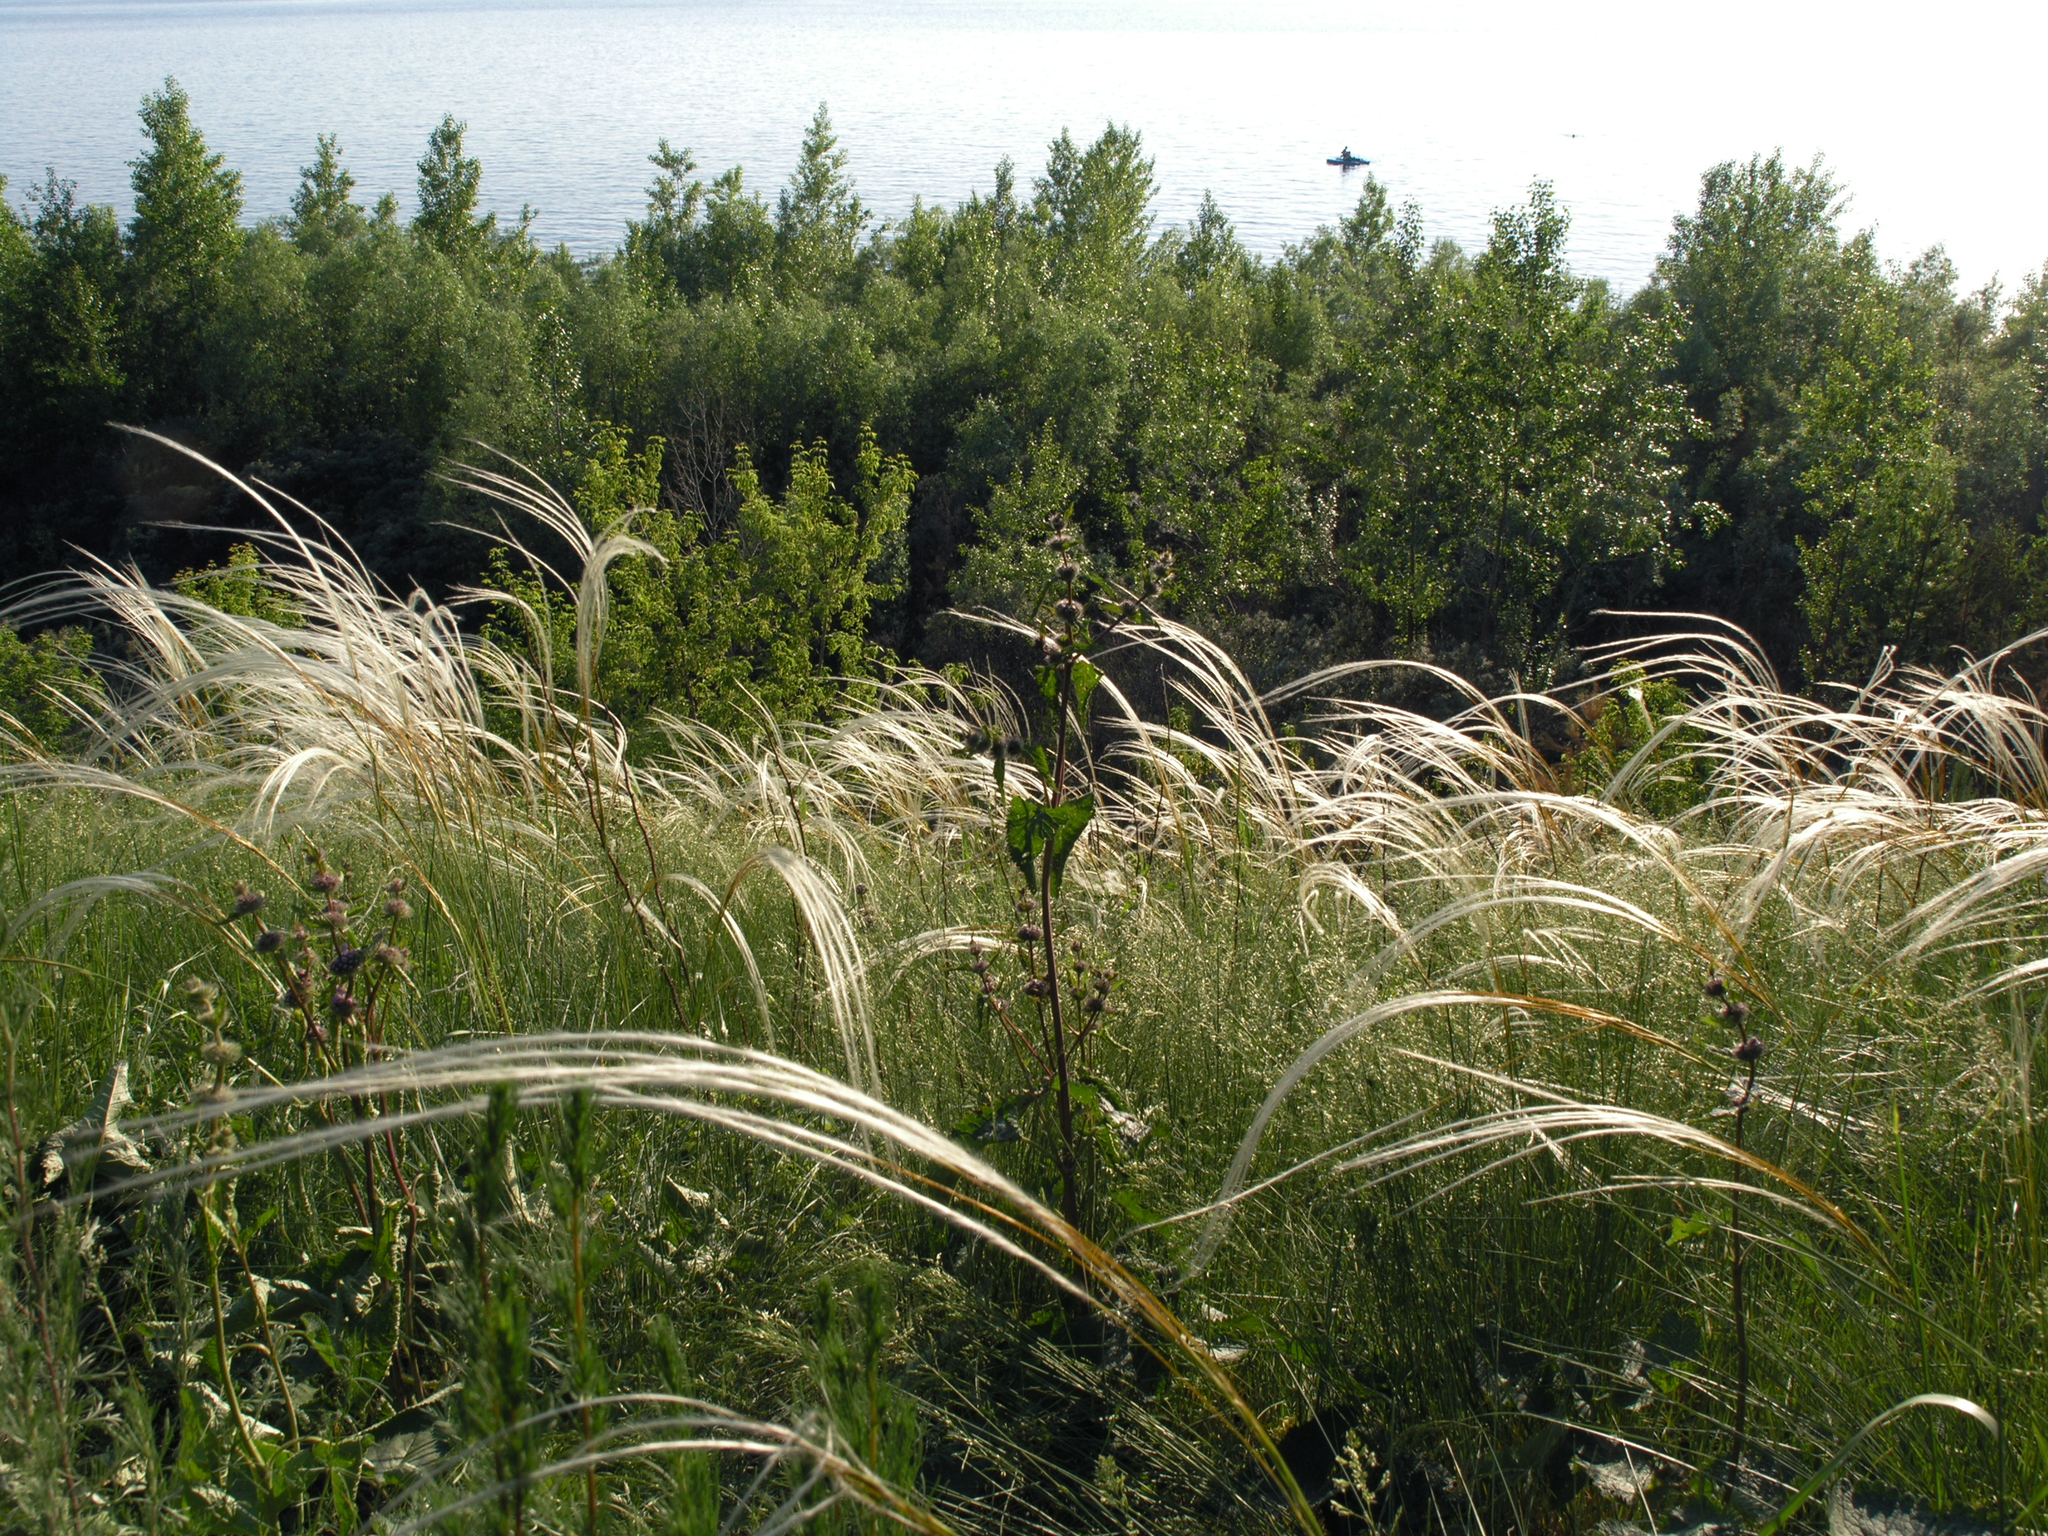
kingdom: Plantae
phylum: Tracheophyta
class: Liliopsida
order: Poales
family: Poaceae
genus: Stipa
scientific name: Stipa pennata
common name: European feather grass
